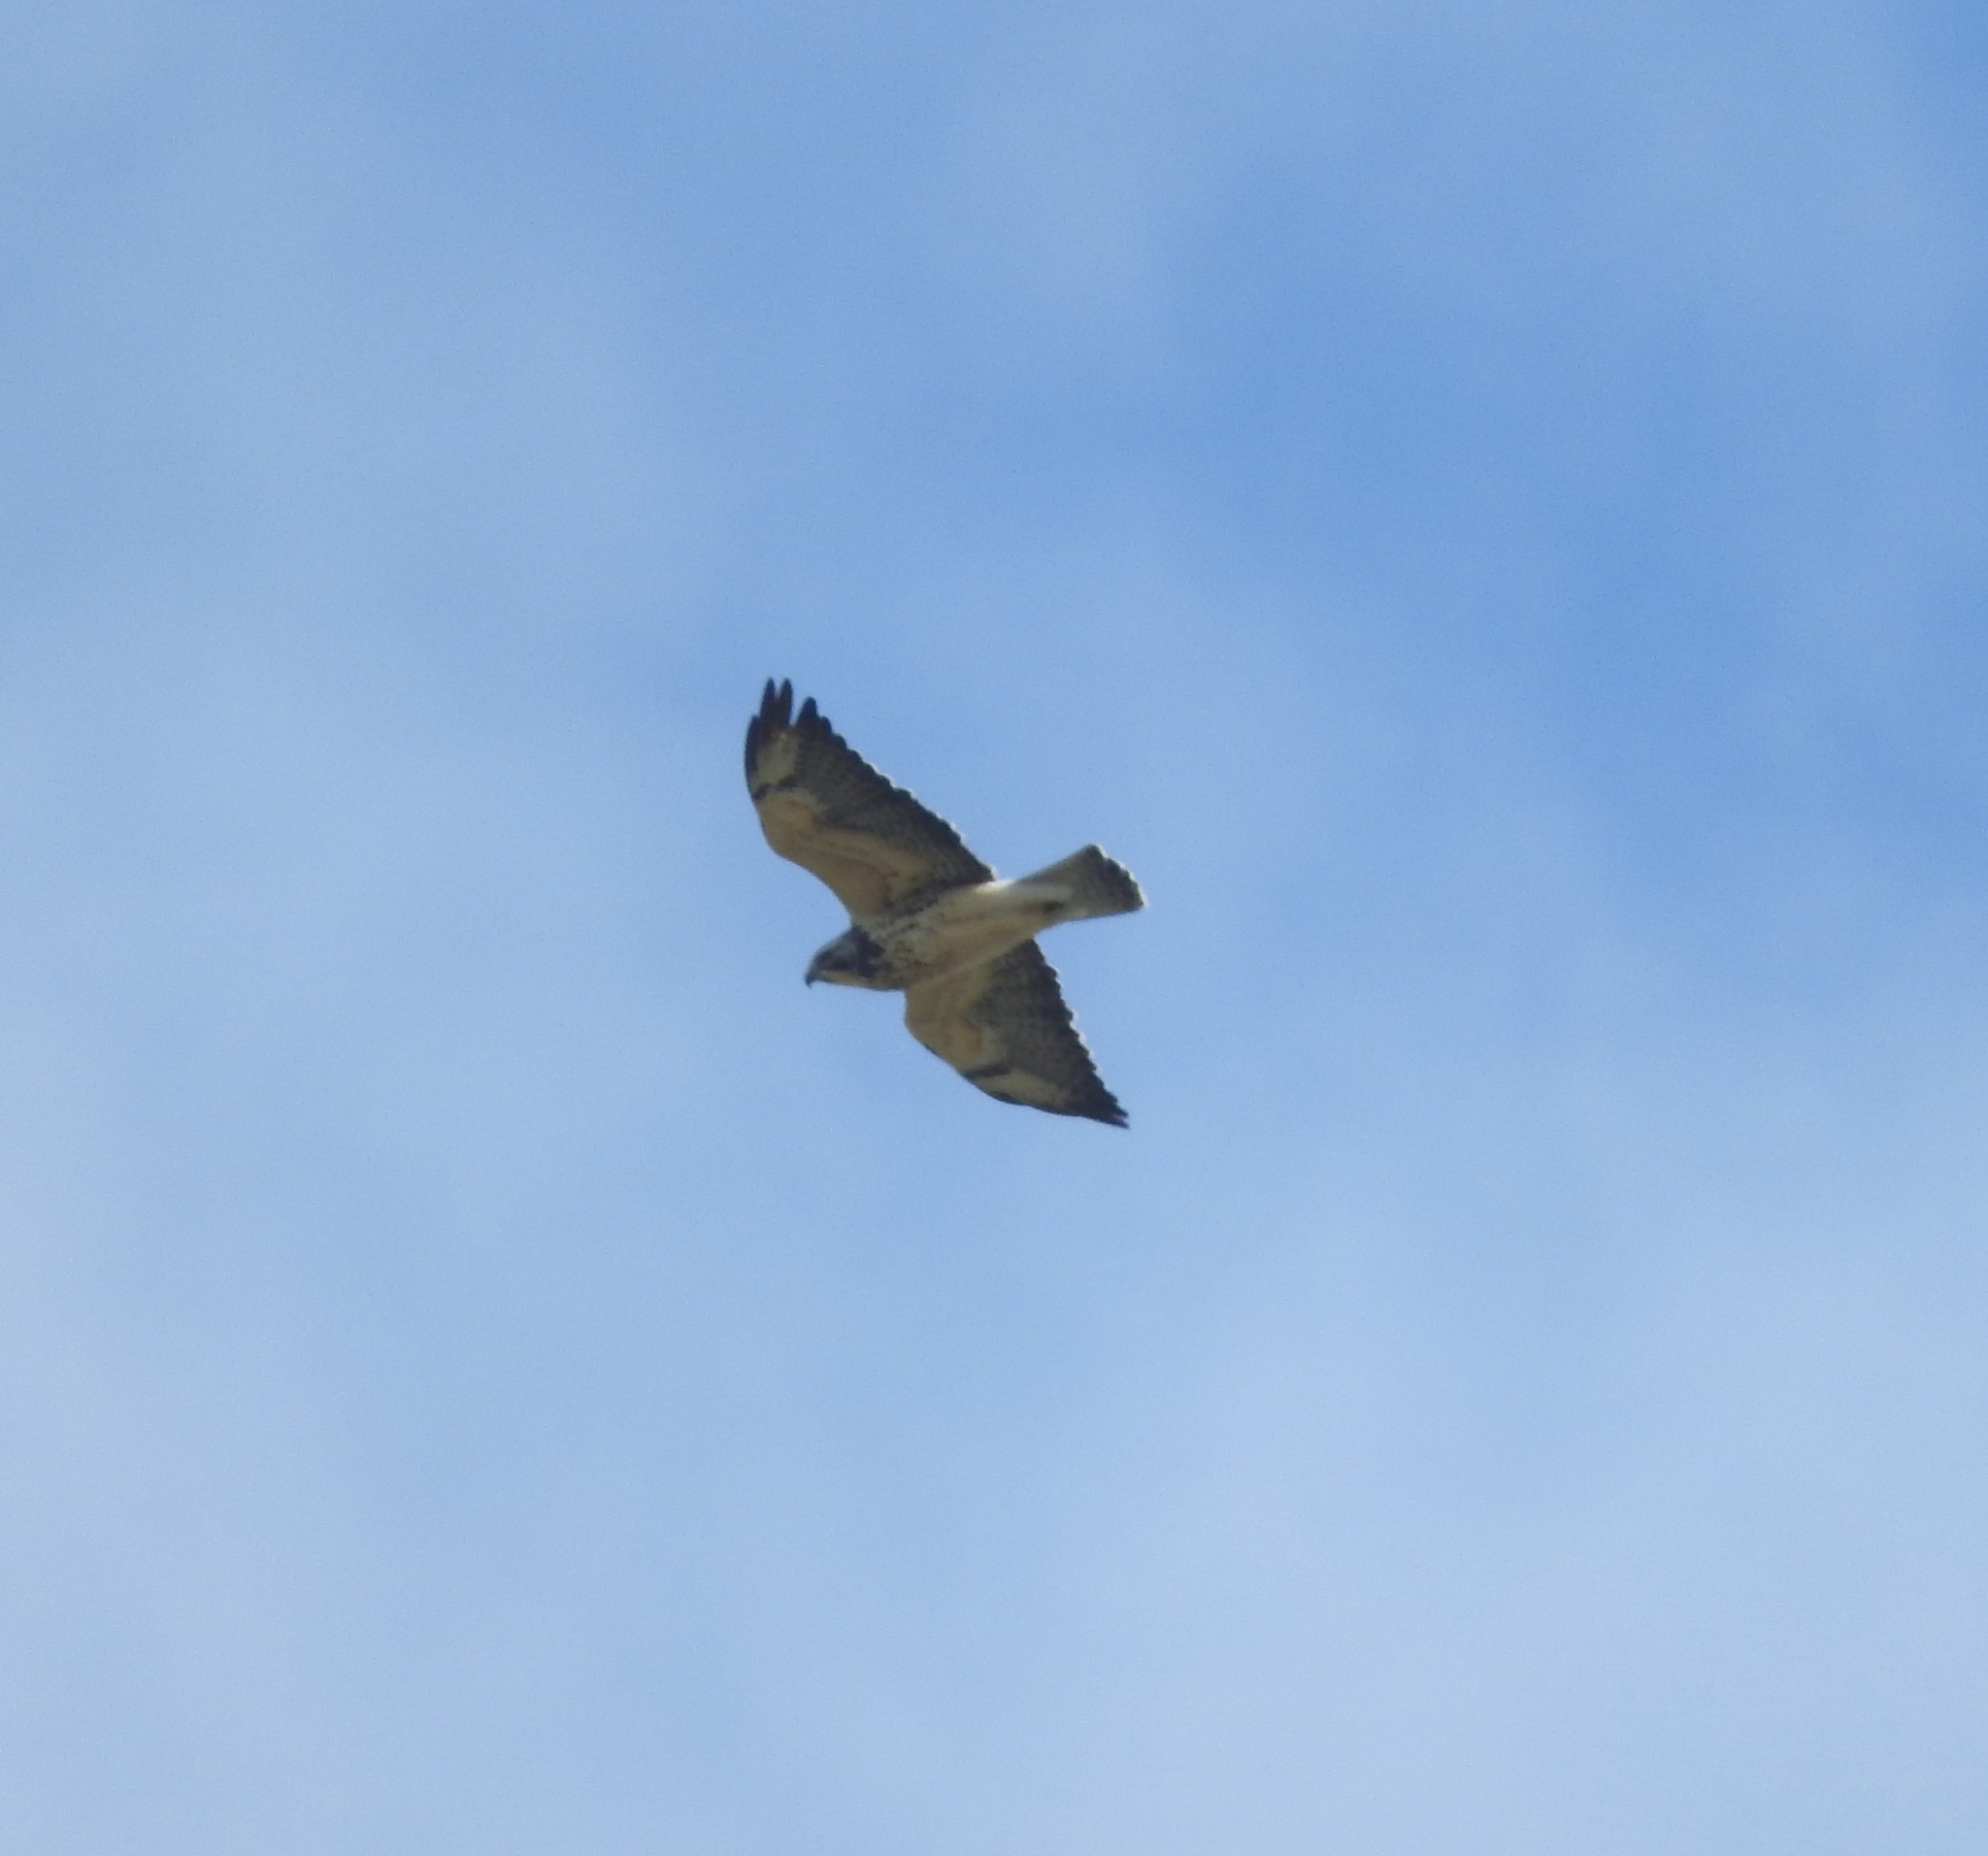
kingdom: Animalia
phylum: Chordata
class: Aves
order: Accipitriformes
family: Accipitridae
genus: Buteo
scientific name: Buteo swainsoni
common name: Swainson's hawk
